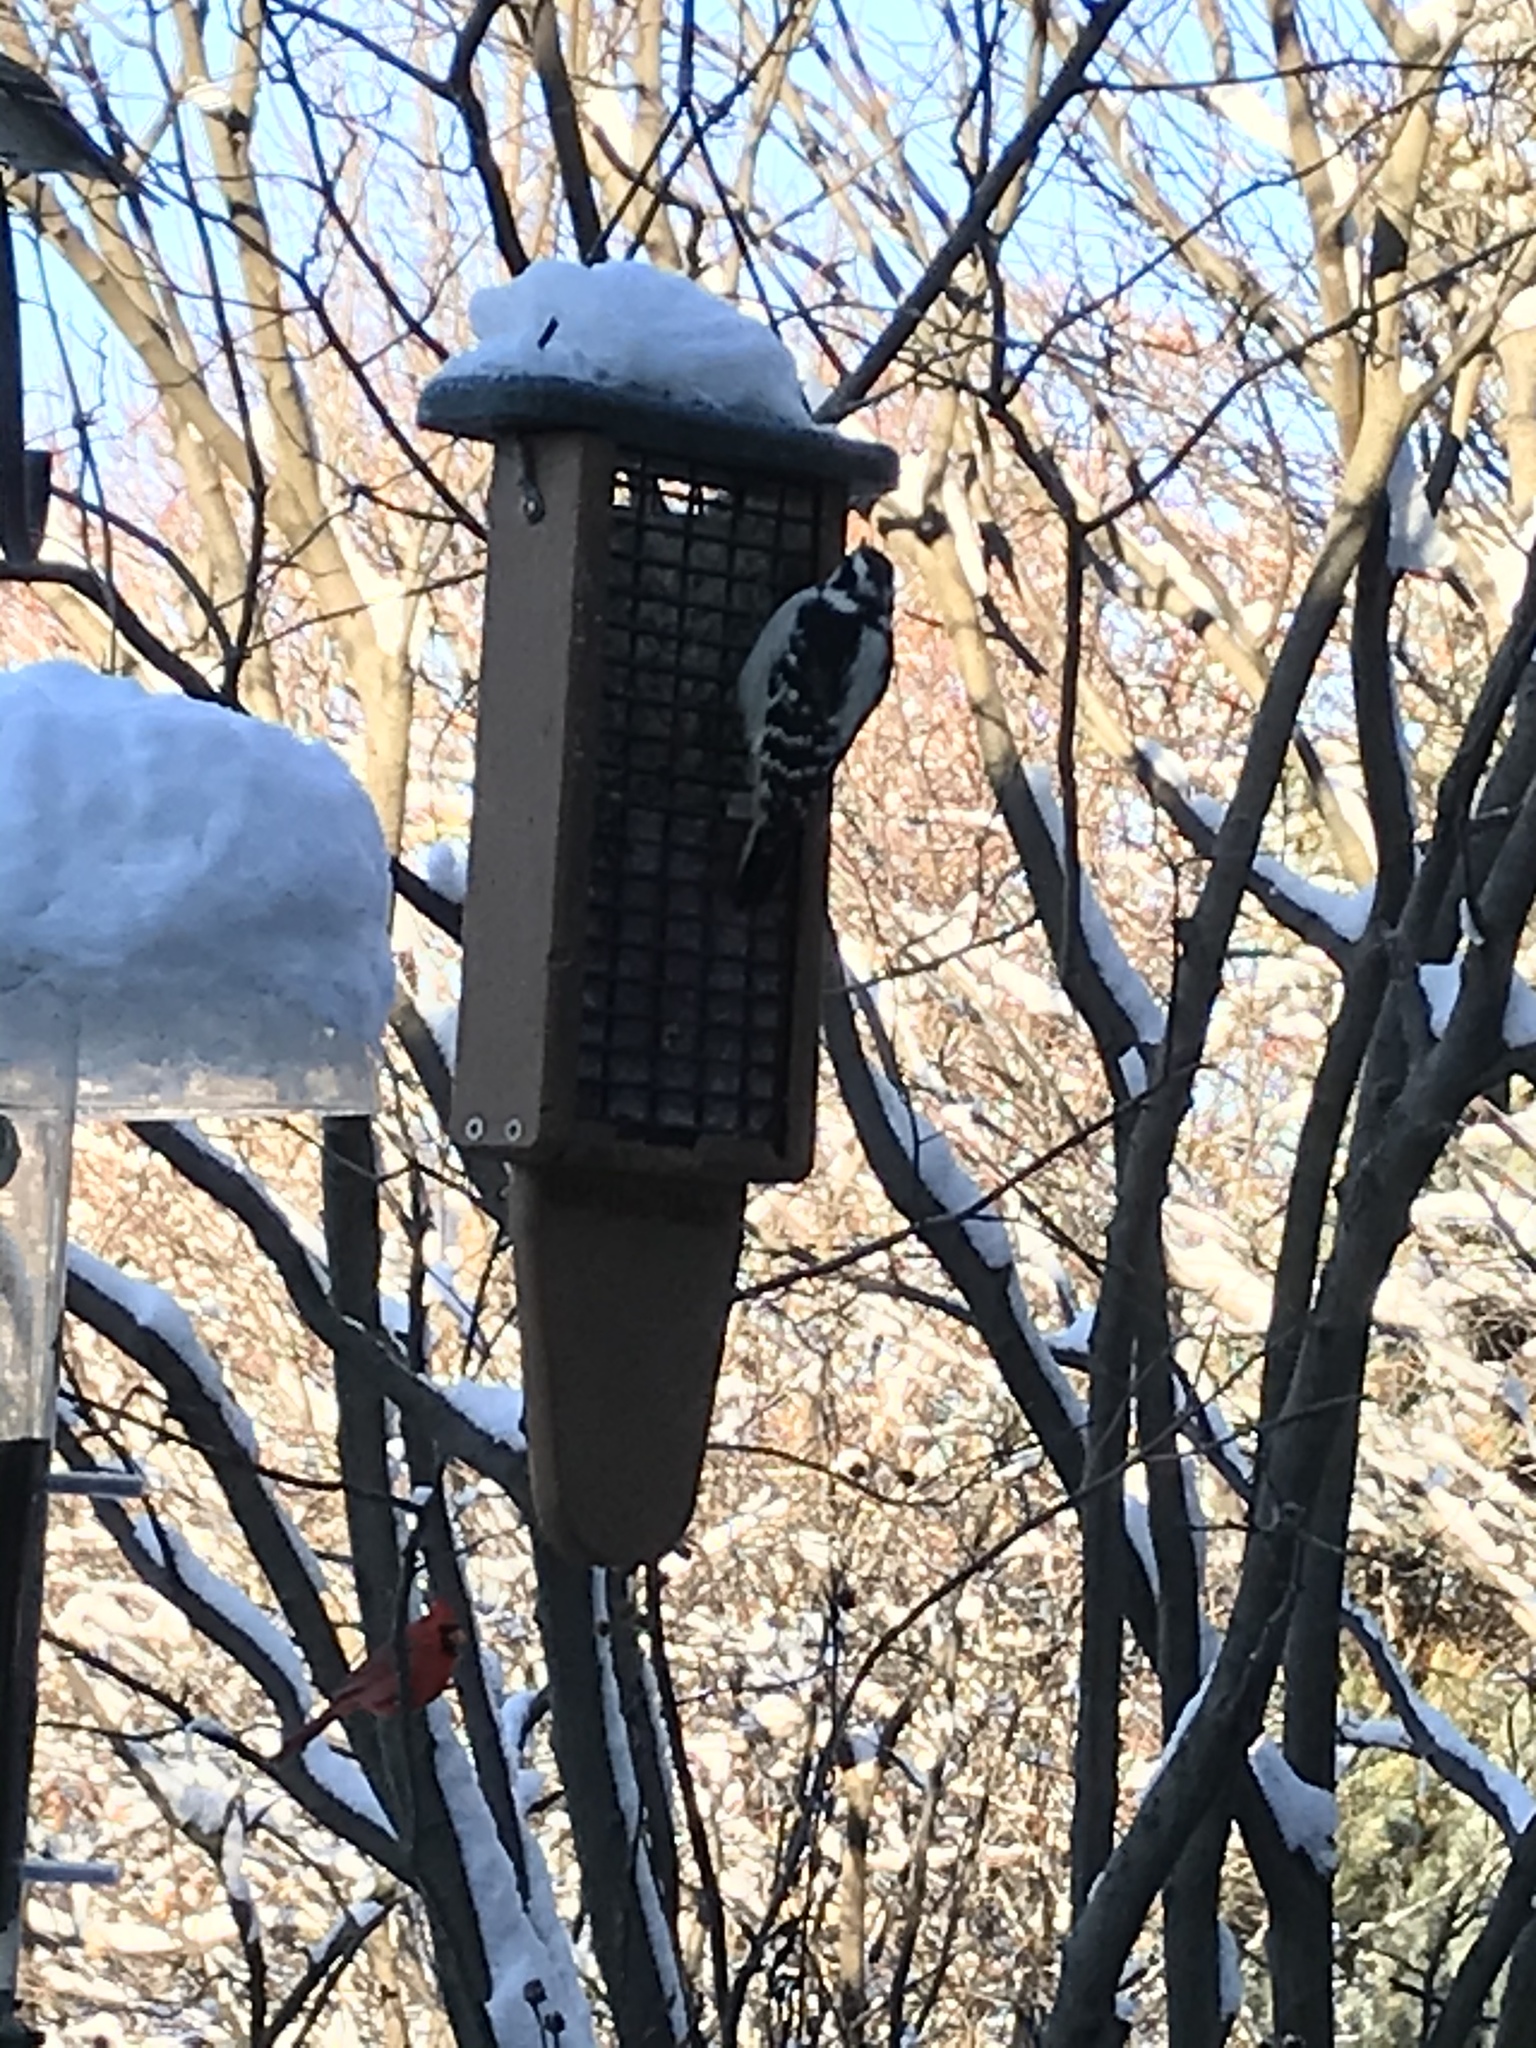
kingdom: Animalia
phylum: Chordata
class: Aves
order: Piciformes
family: Picidae
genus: Dryobates
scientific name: Dryobates pubescens
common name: Downy woodpecker
